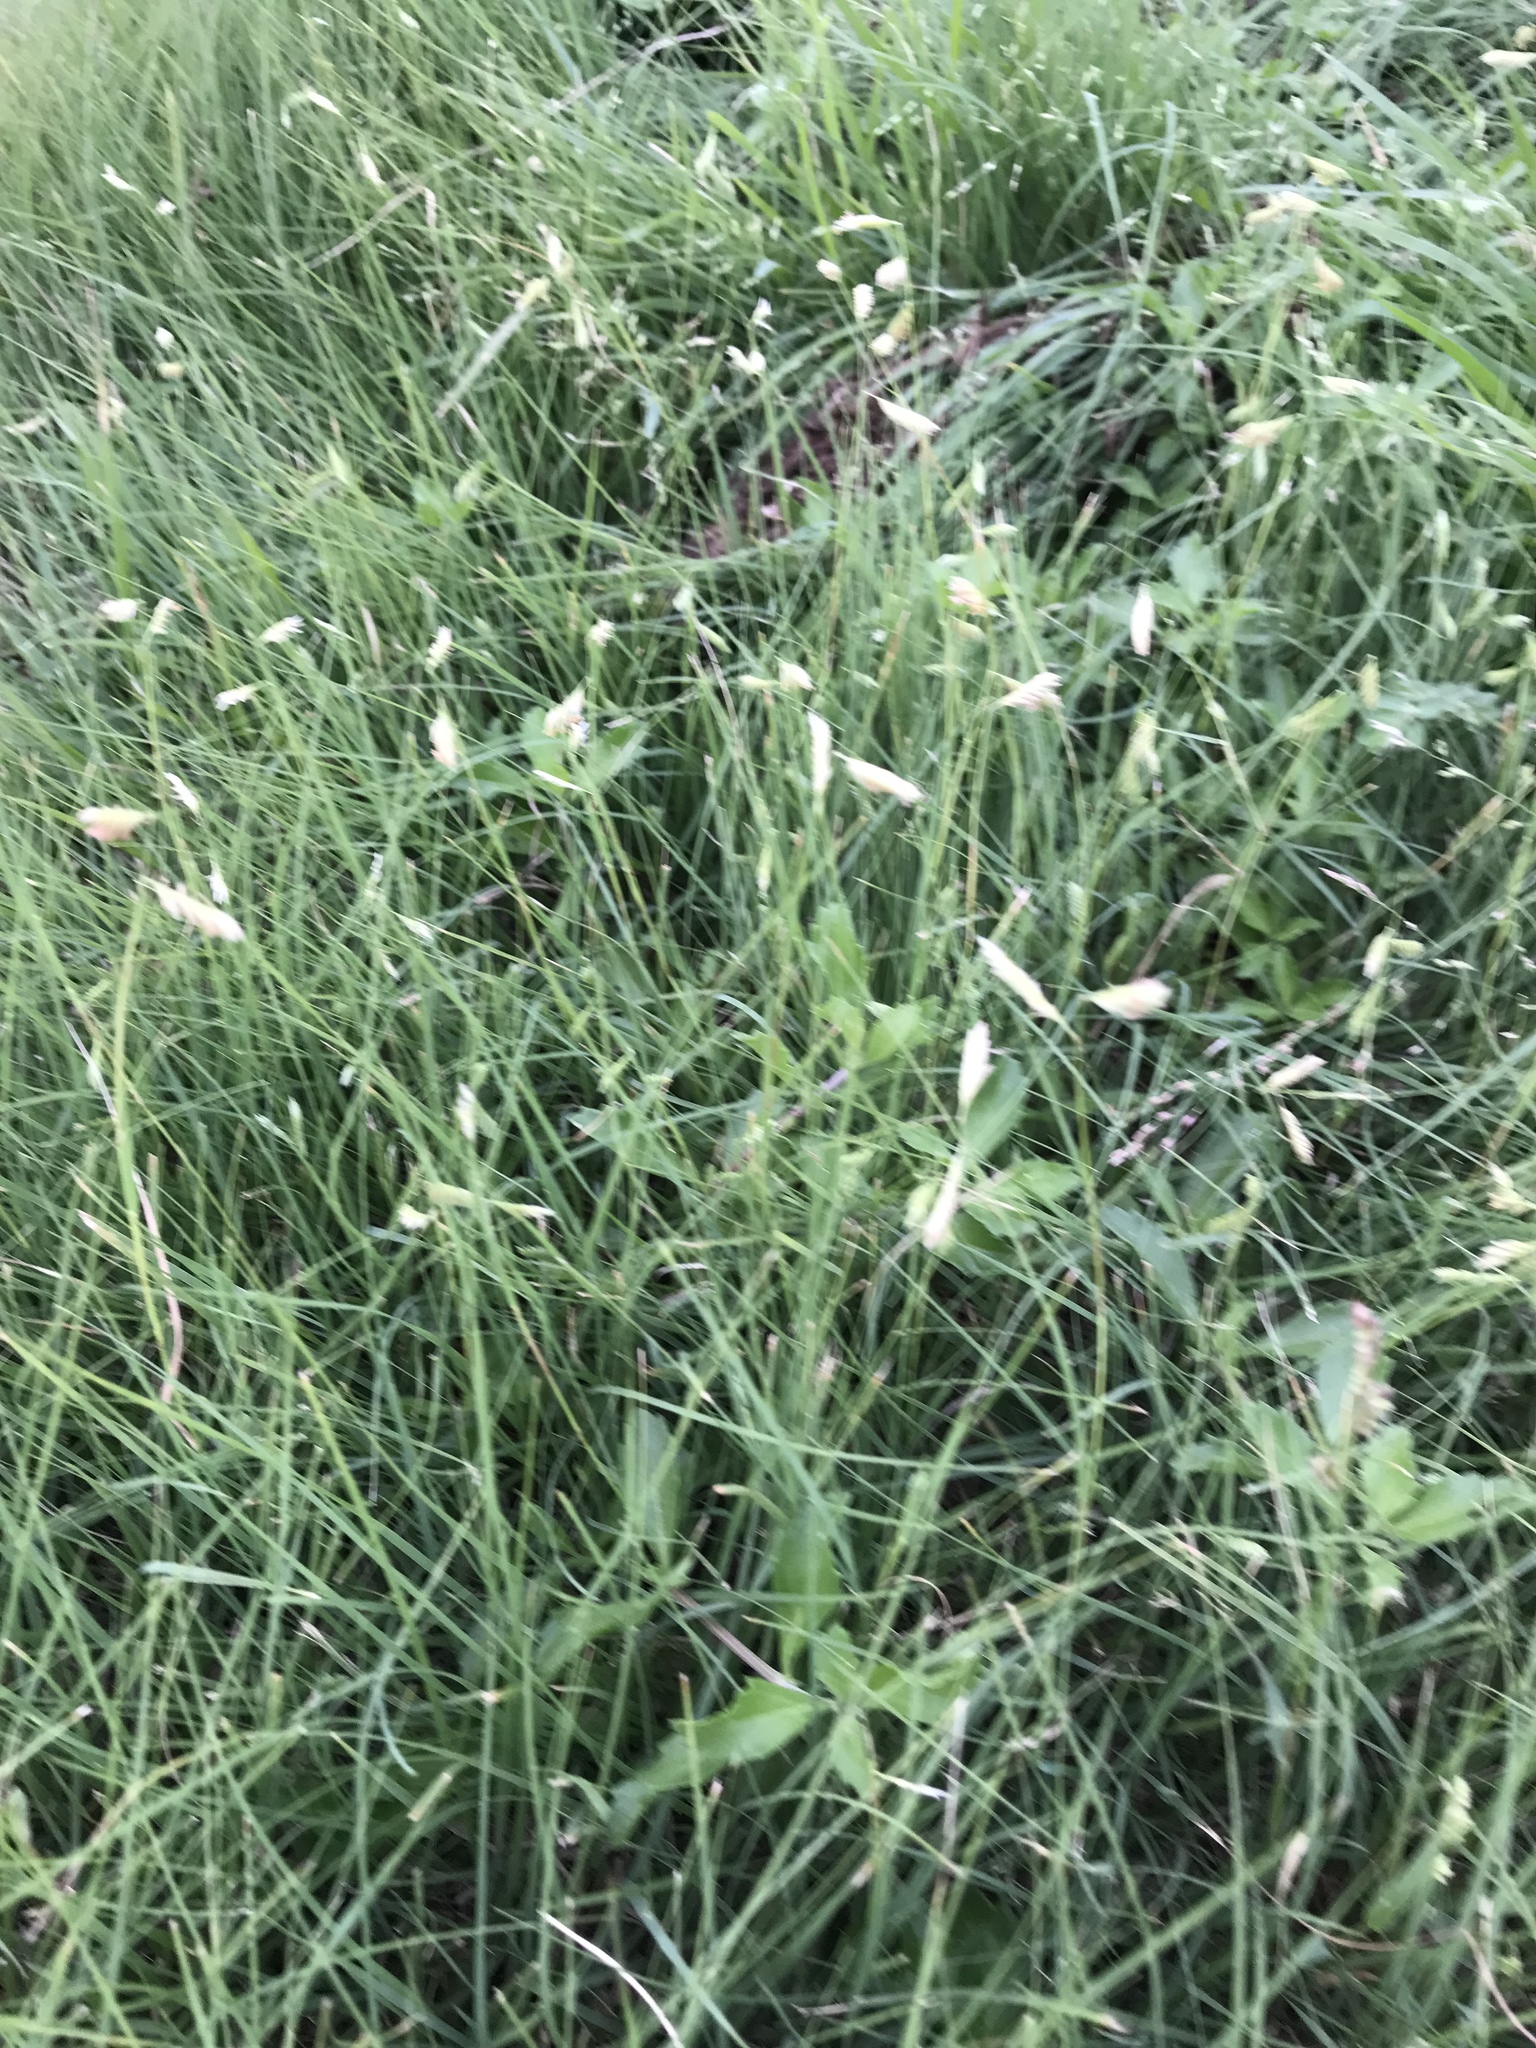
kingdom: Plantae
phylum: Tracheophyta
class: Liliopsida
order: Poales
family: Poaceae
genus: Bouteloua
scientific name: Bouteloua dactyloides
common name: Buffalo grass
